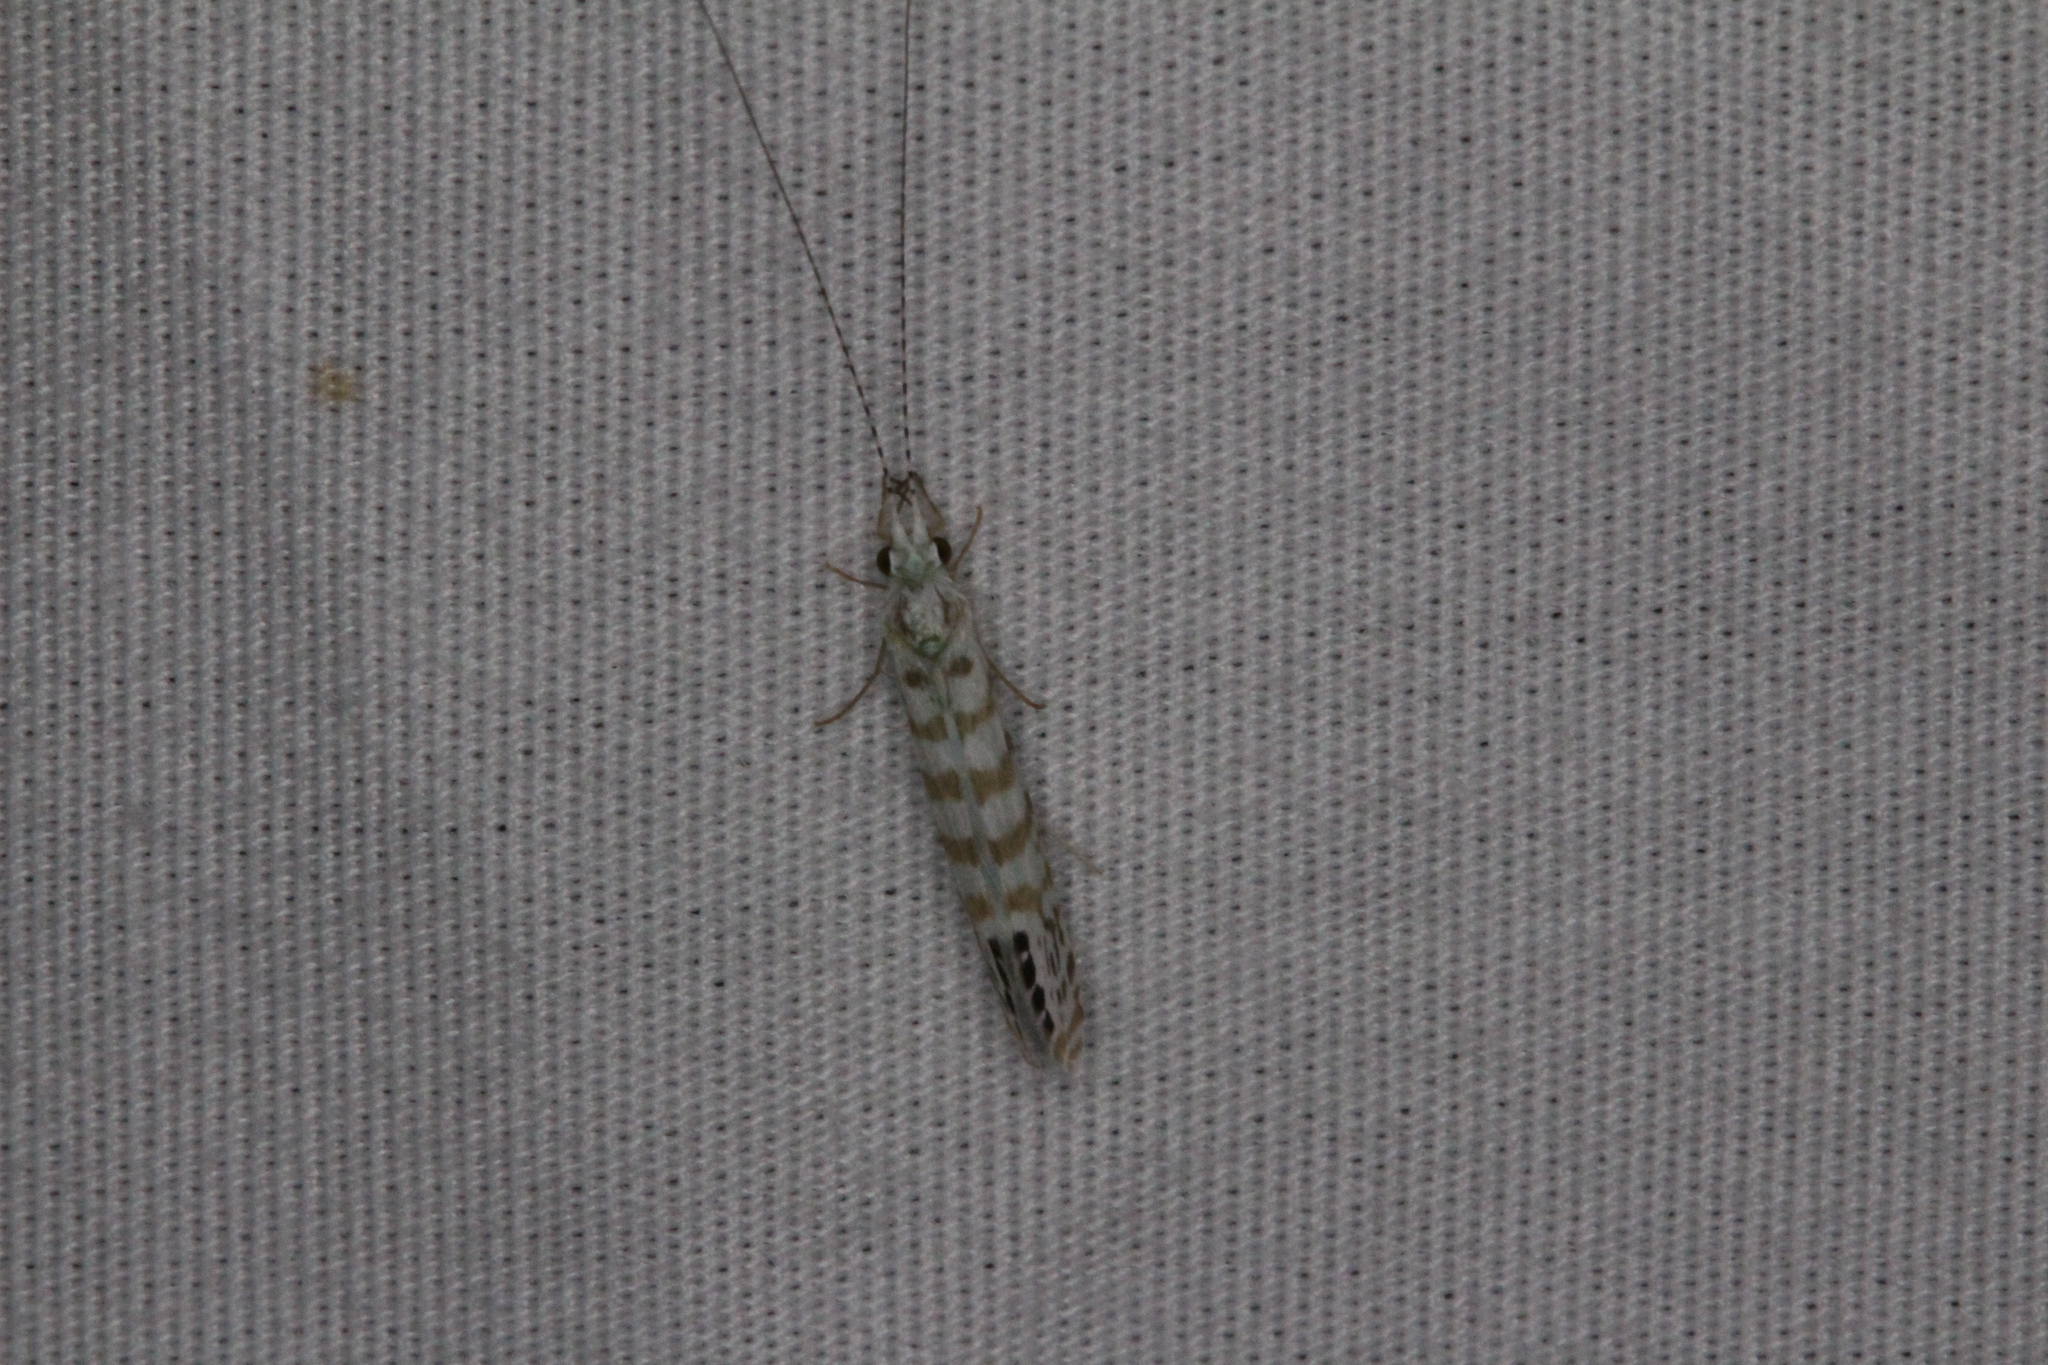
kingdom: Animalia
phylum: Arthropoda
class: Insecta
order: Trichoptera
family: Leptoceridae
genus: Nectopsyche
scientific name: Nectopsyche exquisita
